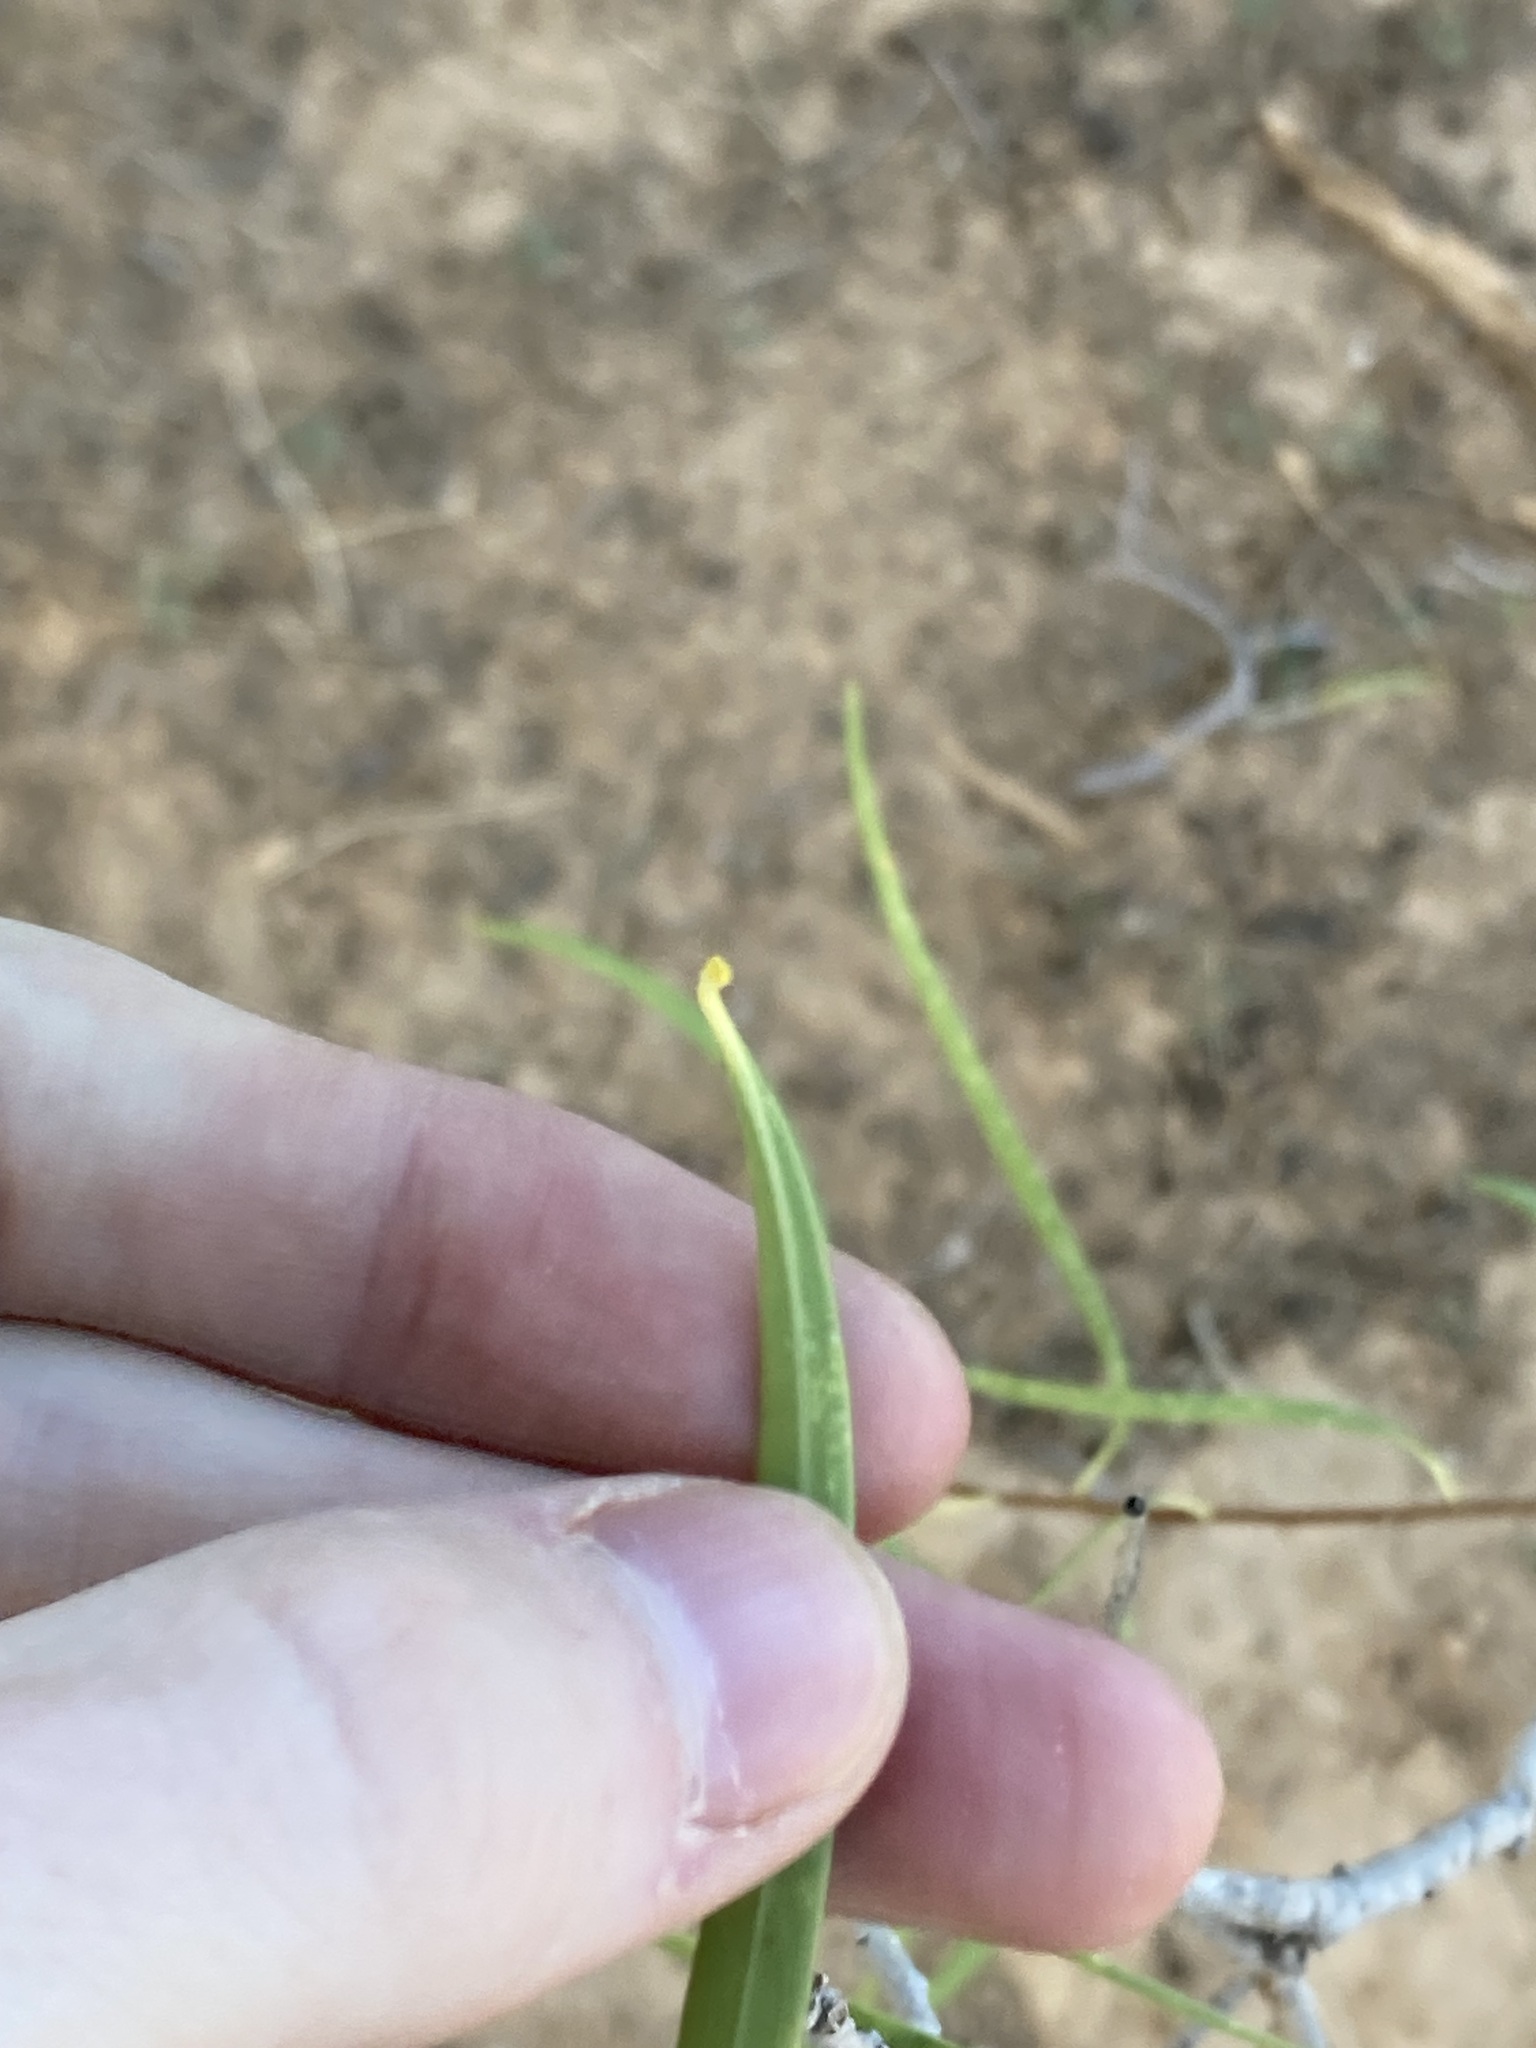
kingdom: Plantae
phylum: Tracheophyta
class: Magnoliopsida
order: Apiales
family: Pittosporaceae
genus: Pittosporum
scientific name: Pittosporum angustifolium
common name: Weeping pittosporum
